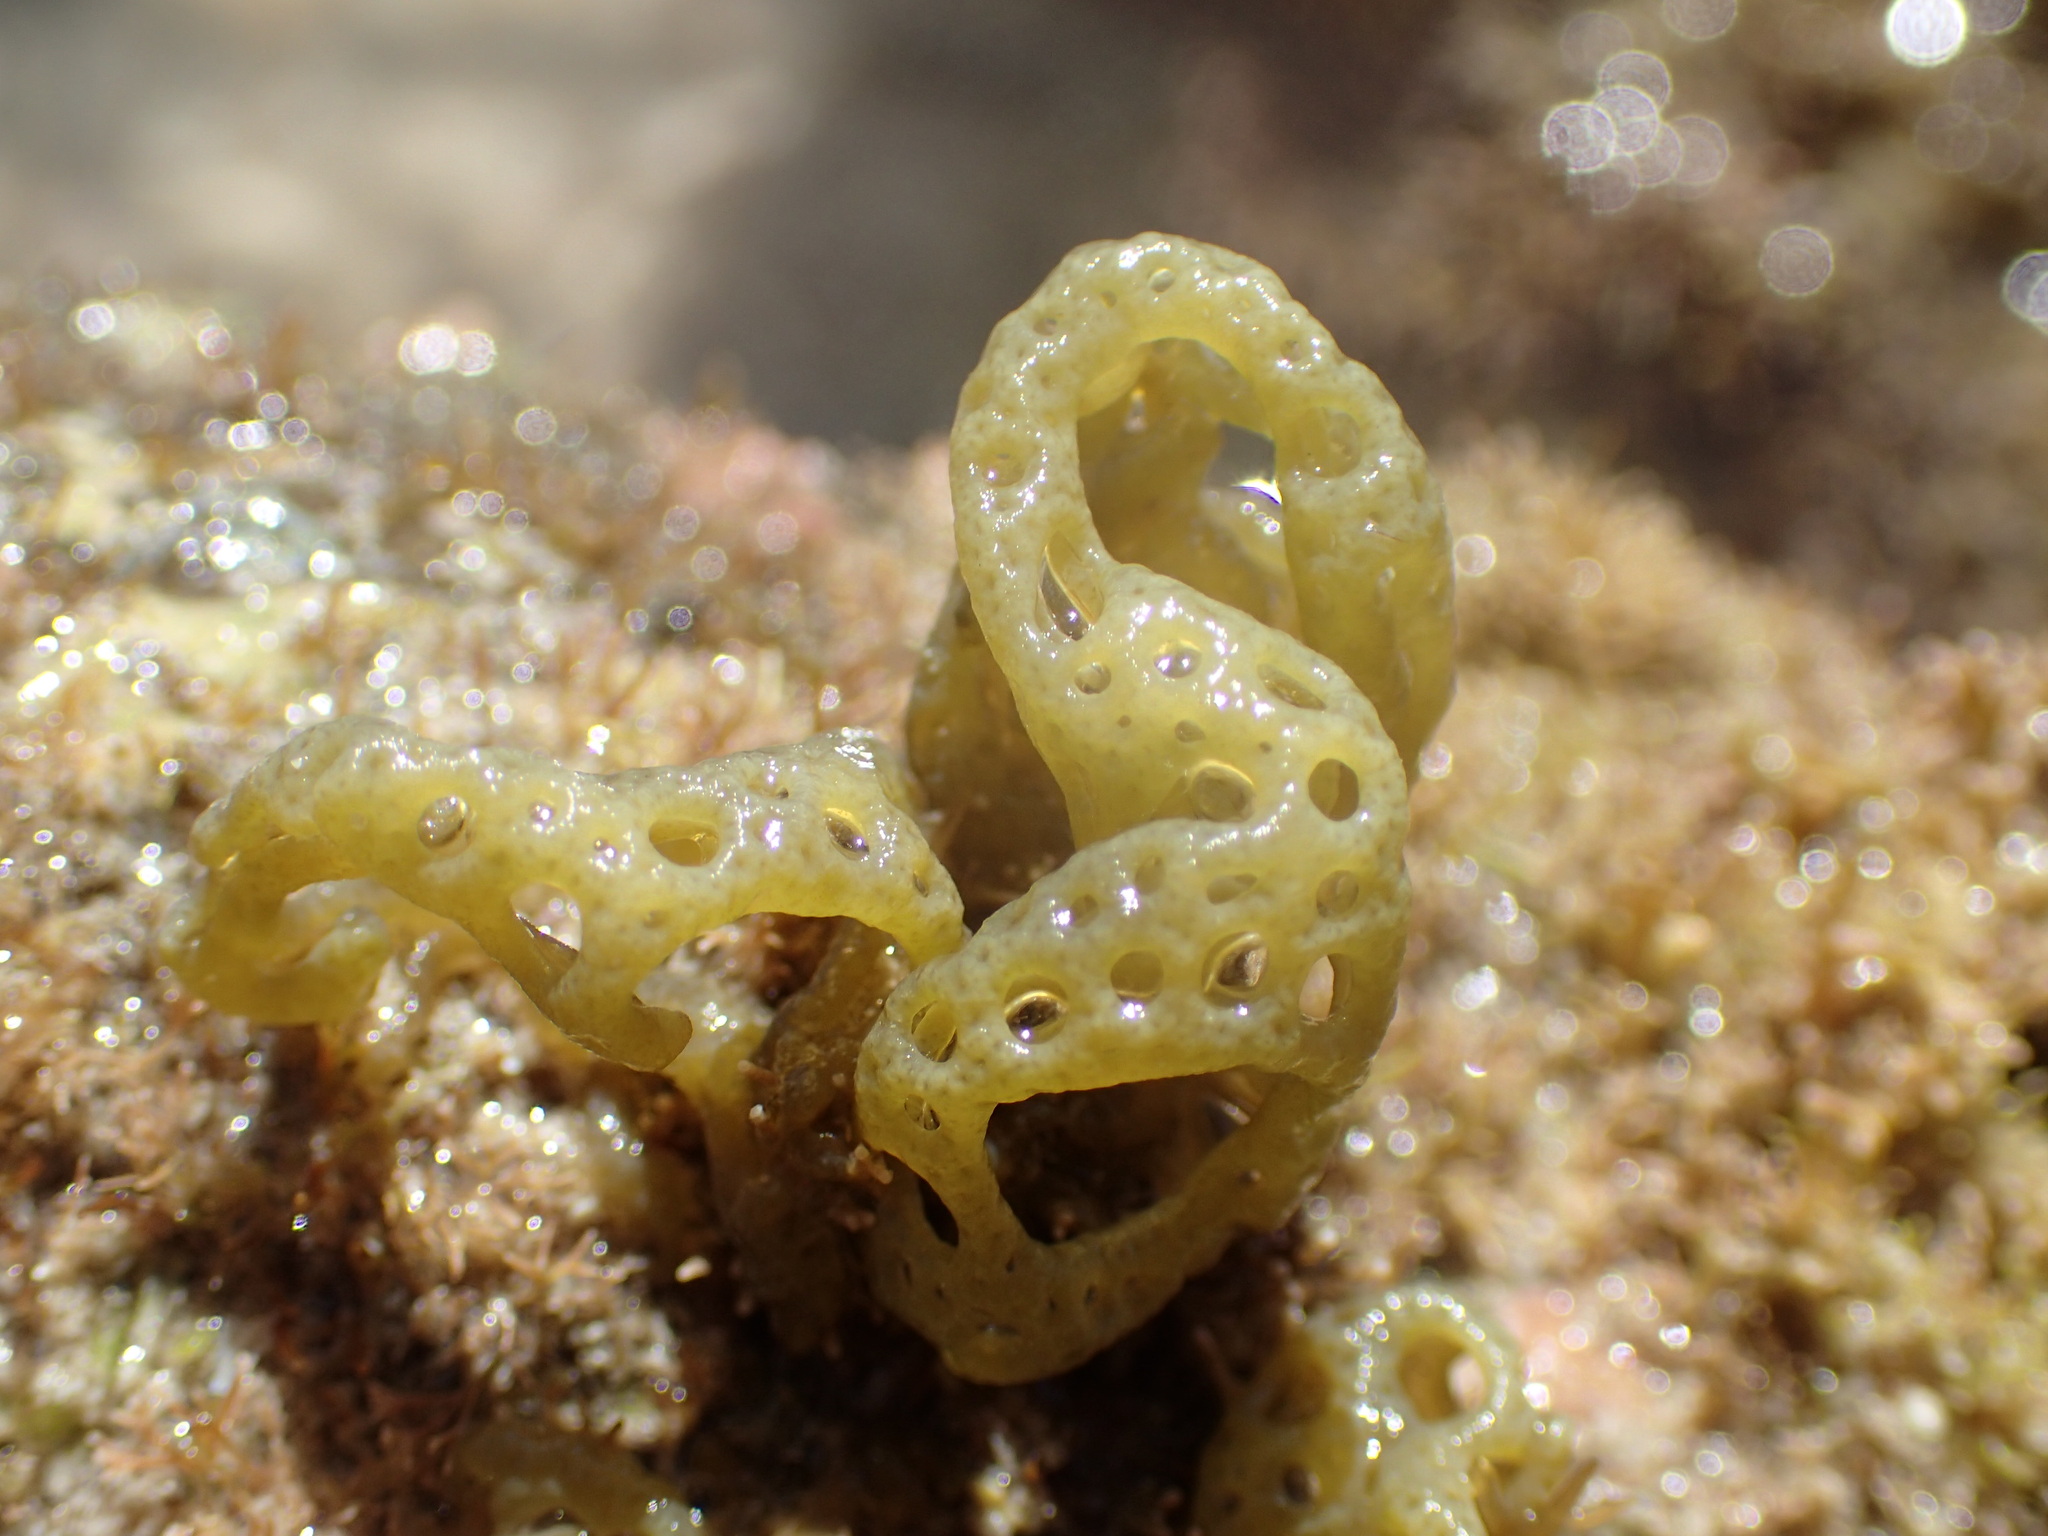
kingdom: Chromista
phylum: Ochrophyta
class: Phaeophyceae
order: Scytosiphonales
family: Scytosiphonaceae
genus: Hydroclathrus
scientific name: Hydroclathrus clathratus
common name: Swiss cheese algae
